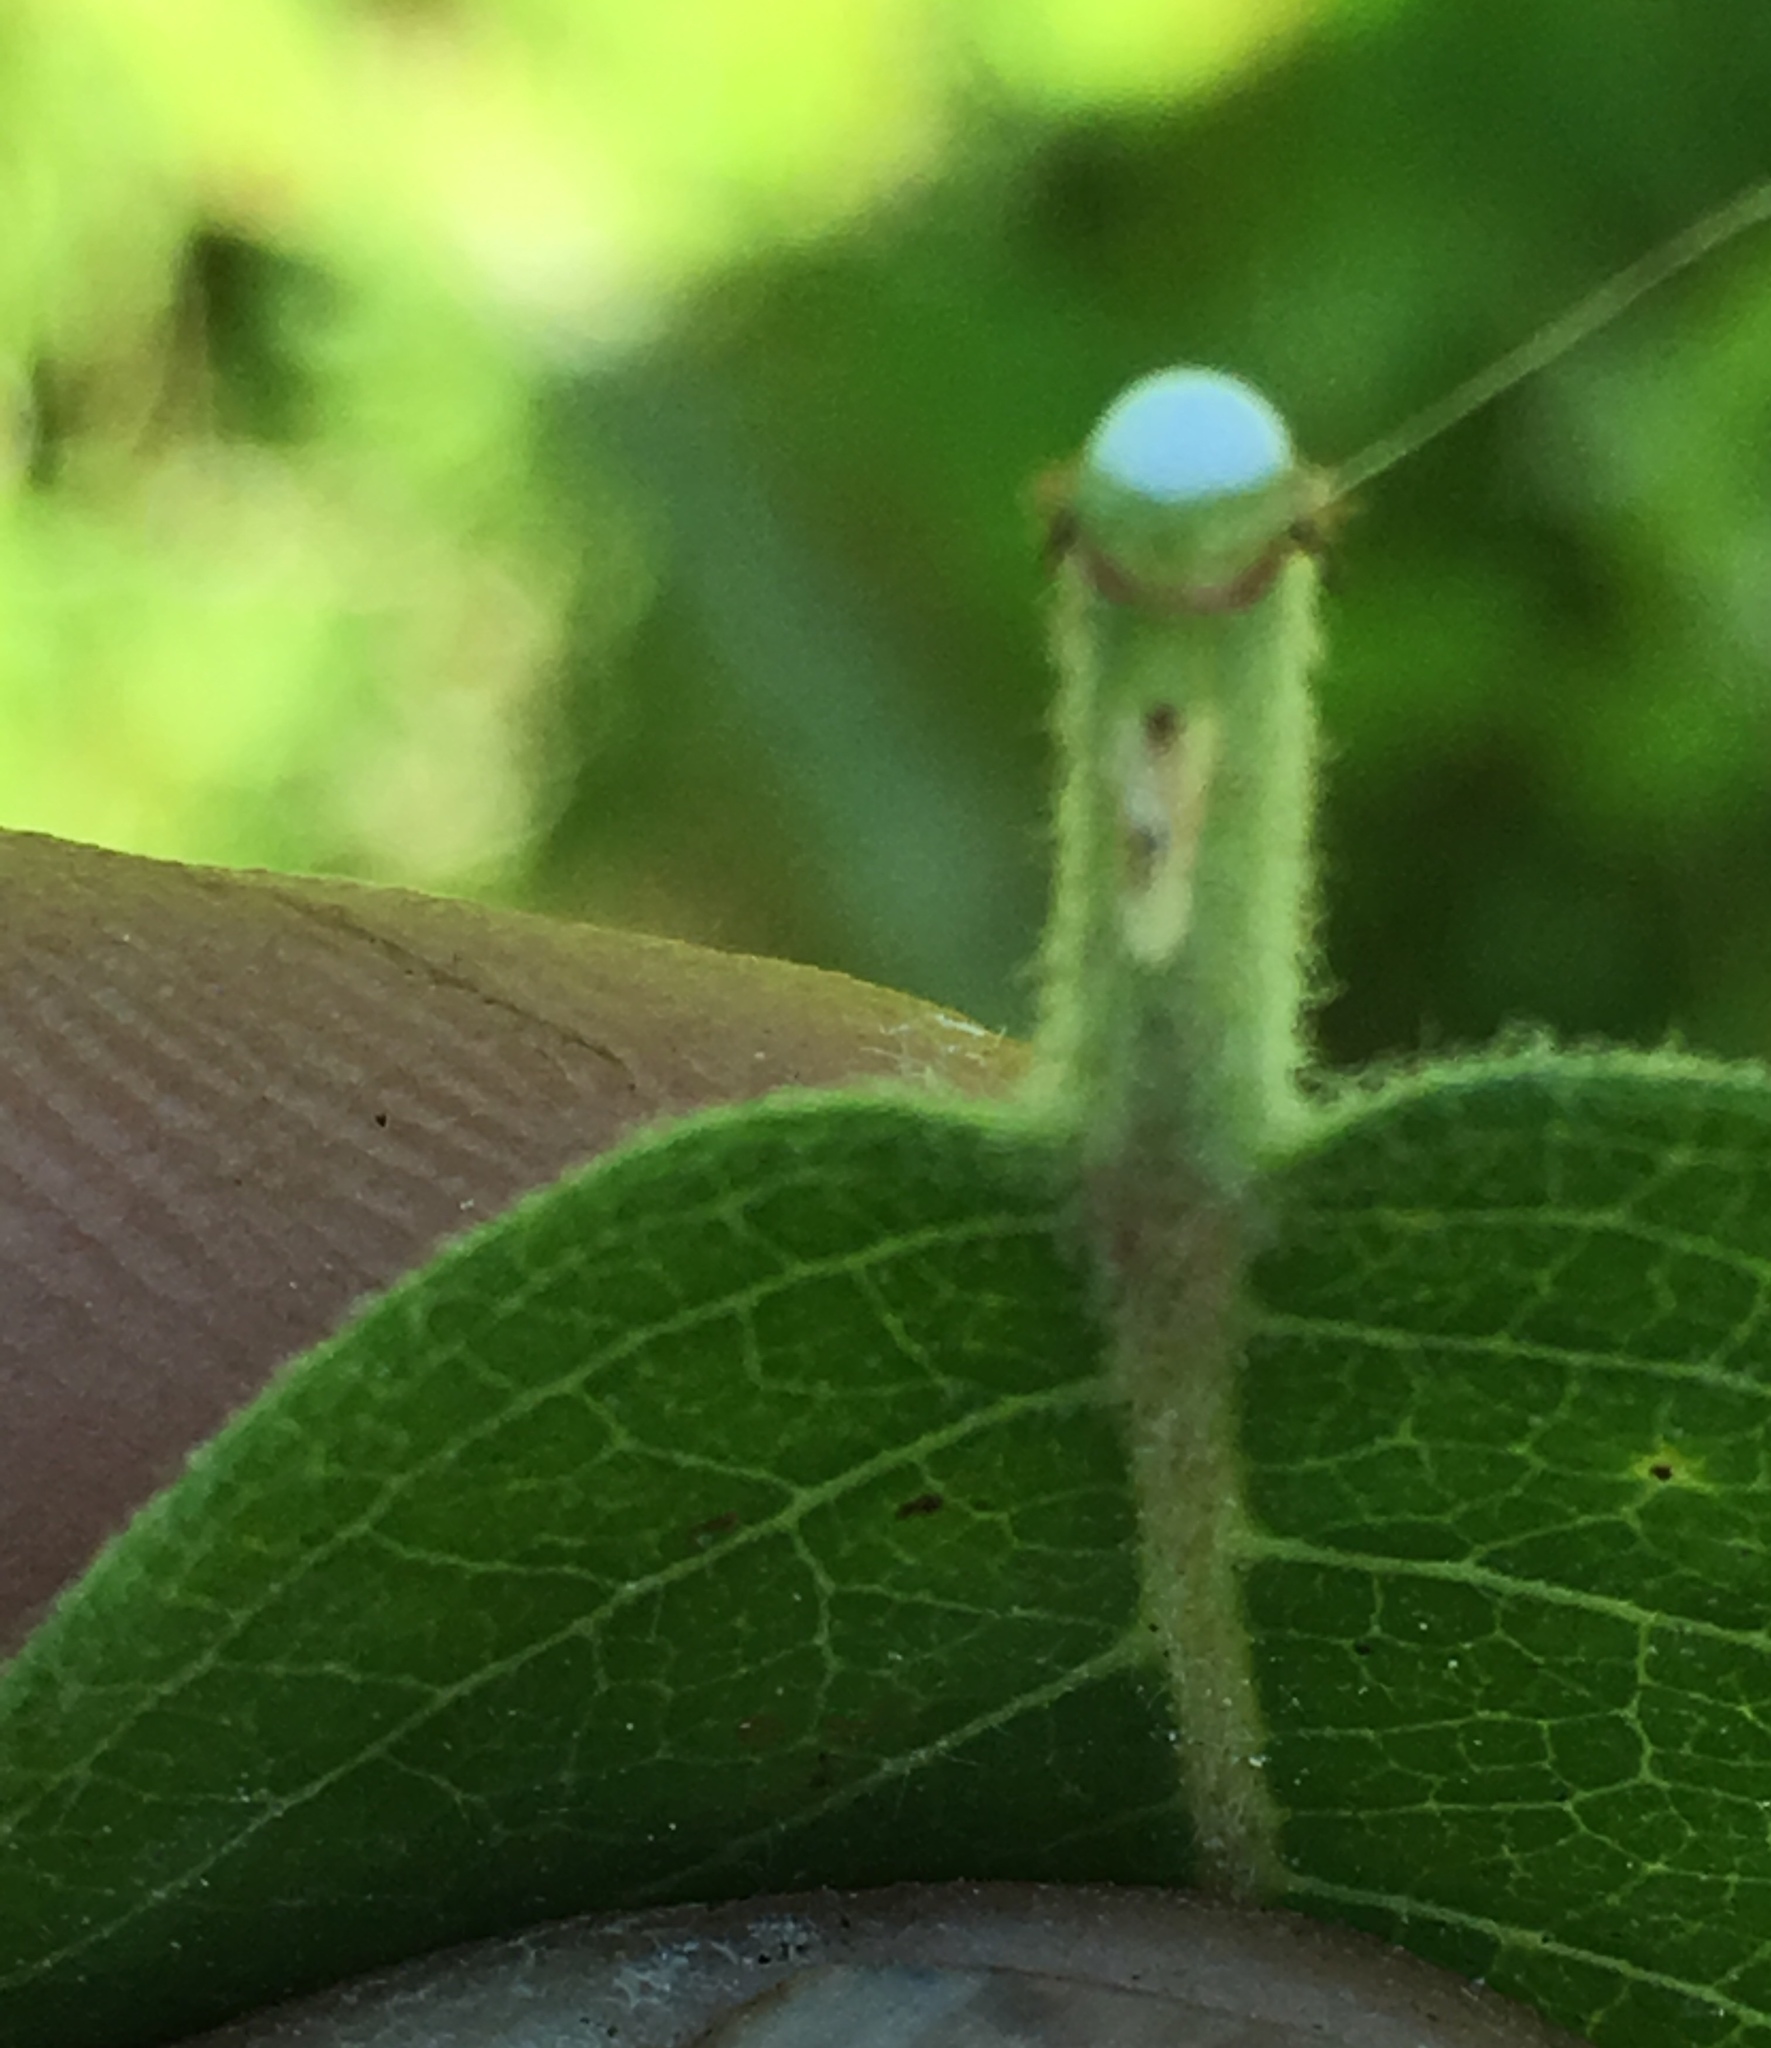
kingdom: Plantae
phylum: Tracheophyta
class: Magnoliopsida
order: Gentianales
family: Apocynaceae
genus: Apocynum
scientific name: Apocynum cannabinum
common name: Hemp dogbane
